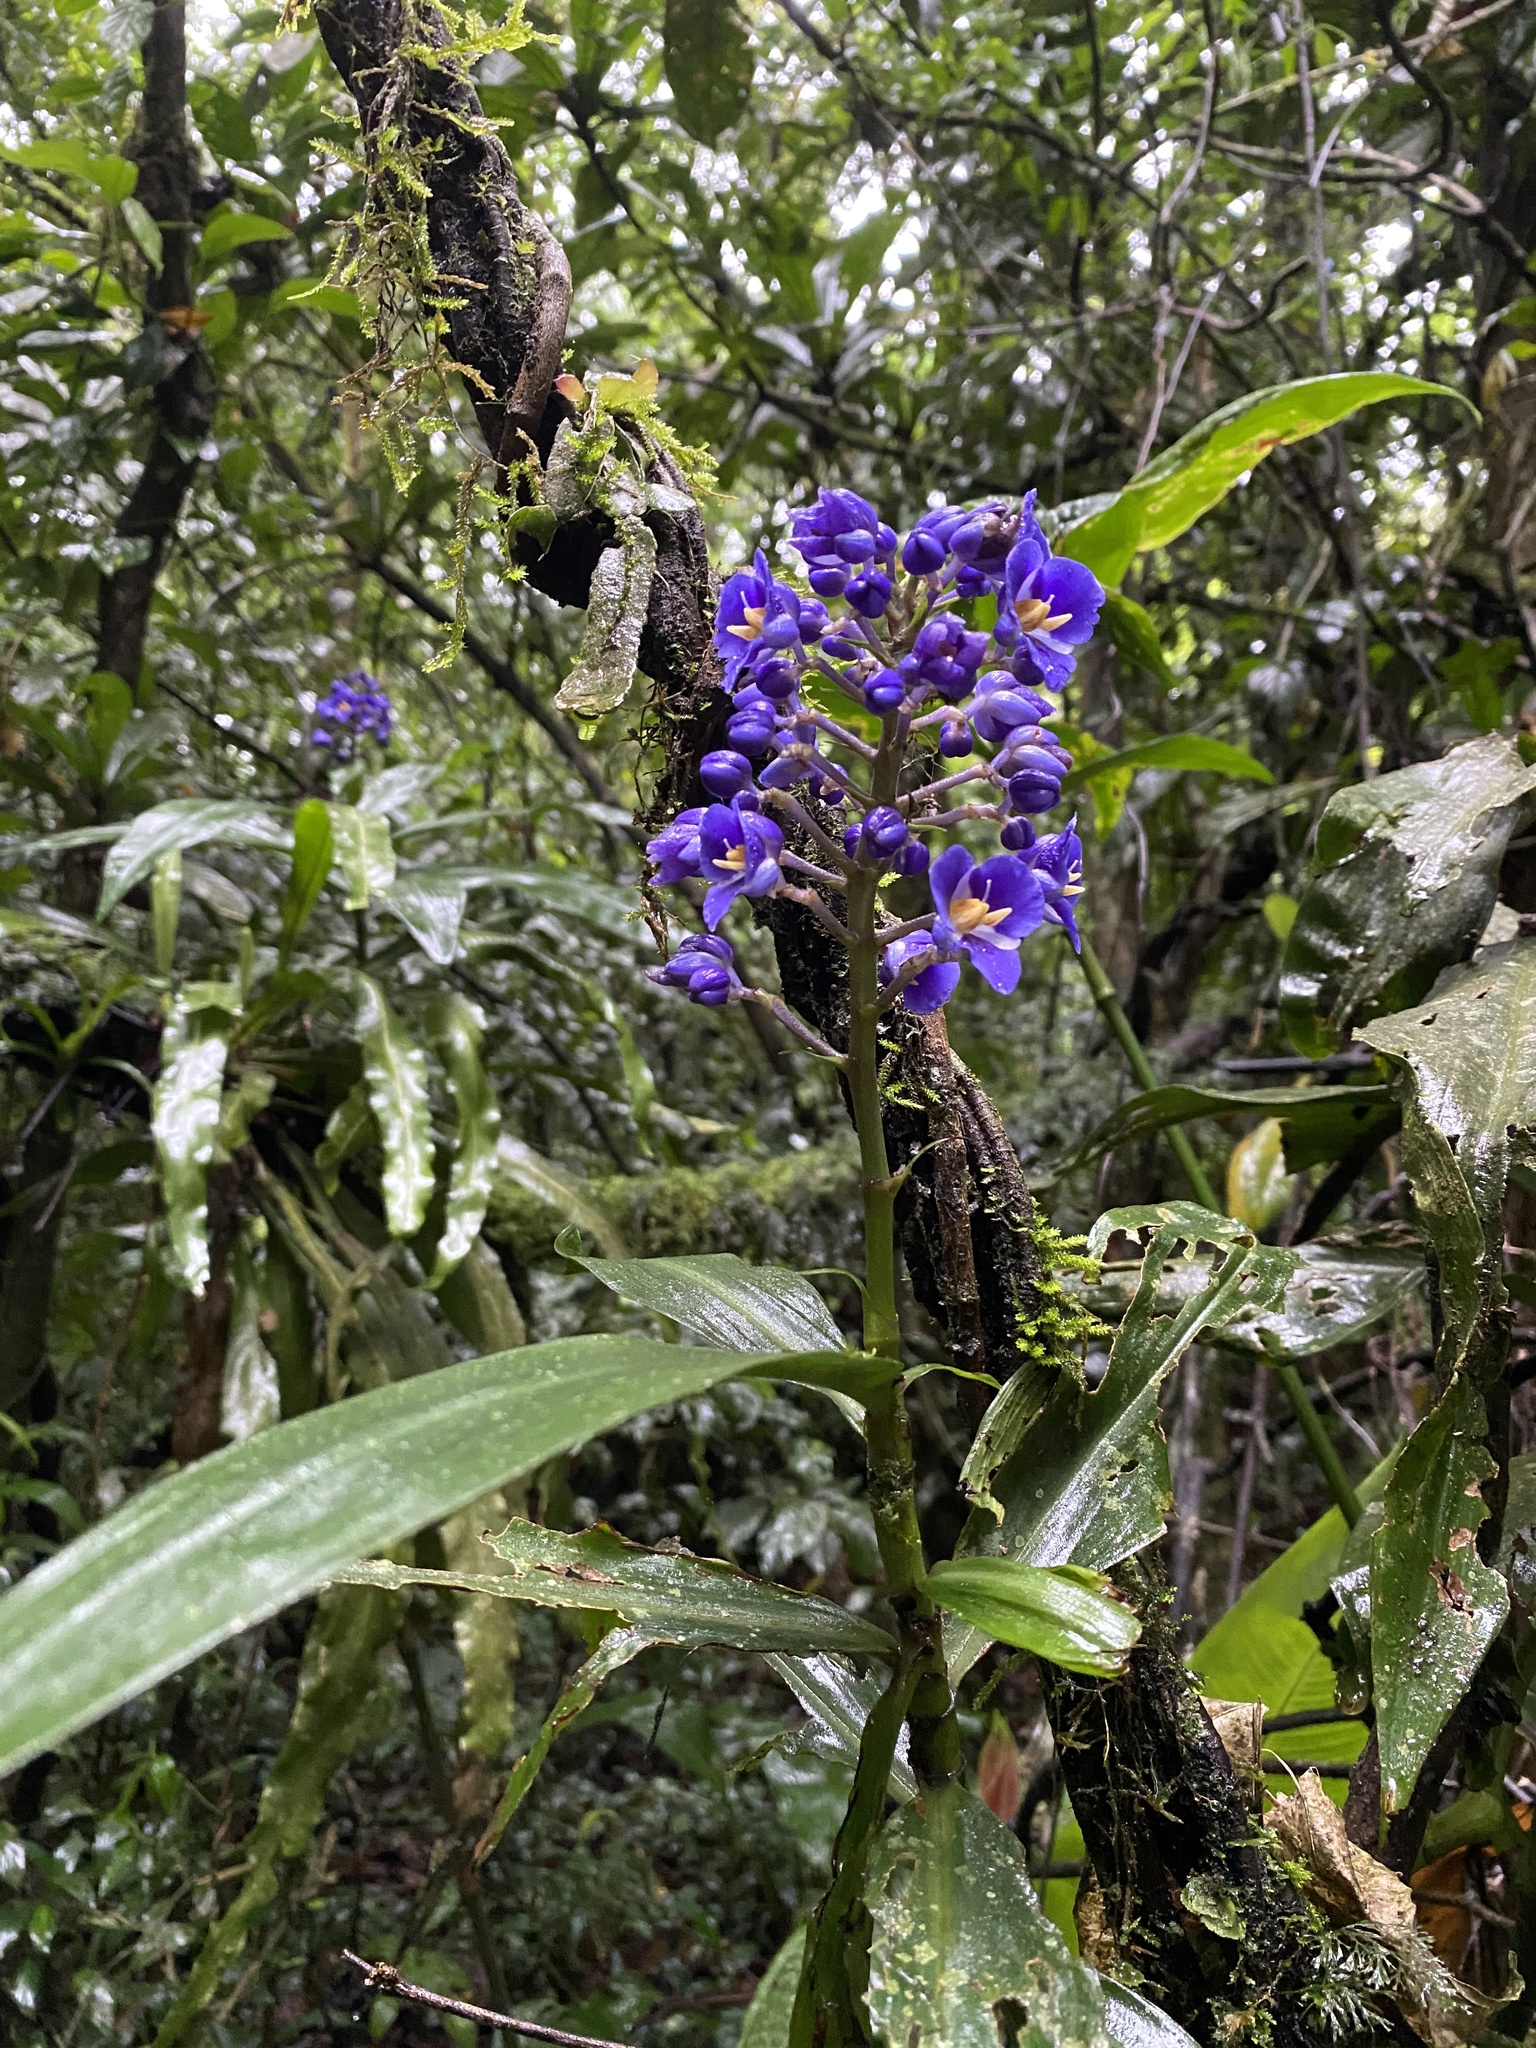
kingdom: Plantae
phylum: Tracheophyta
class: Liliopsida
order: Commelinales
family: Commelinaceae
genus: Dichorisandra
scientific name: Dichorisandra thyrsiflora
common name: Blue-ginger
